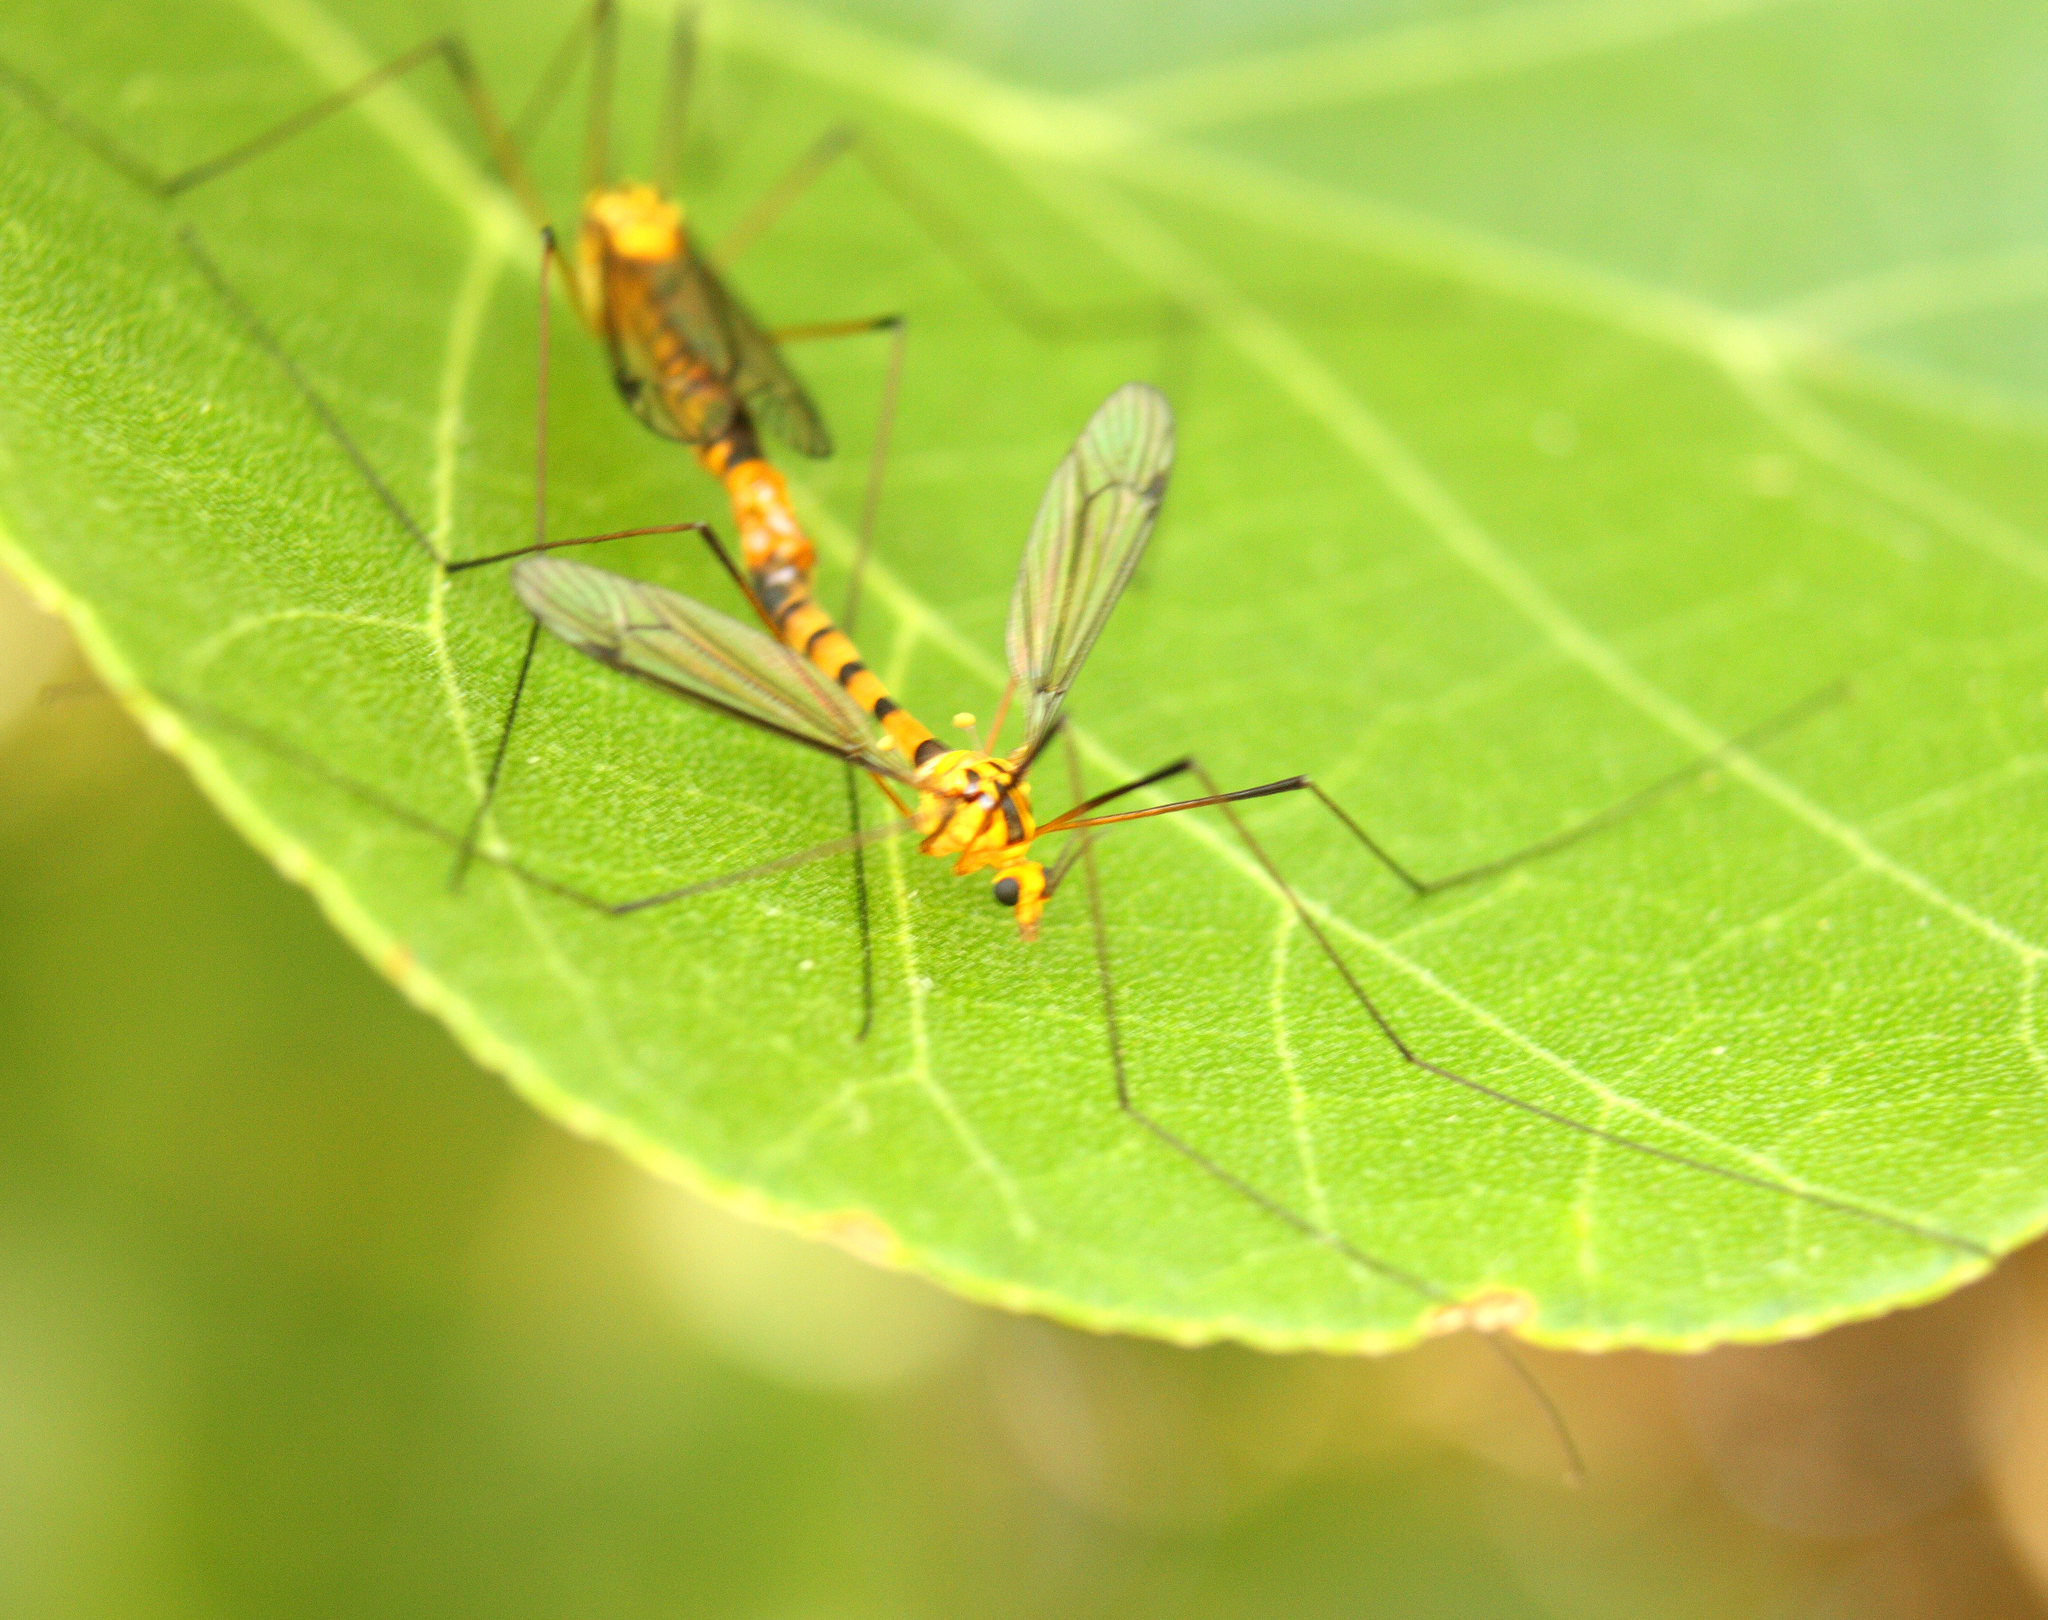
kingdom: Animalia
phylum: Arthropoda
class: Insecta
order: Diptera
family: Tipulidae
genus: Nephrotoma
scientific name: Nephrotoma australasiae
